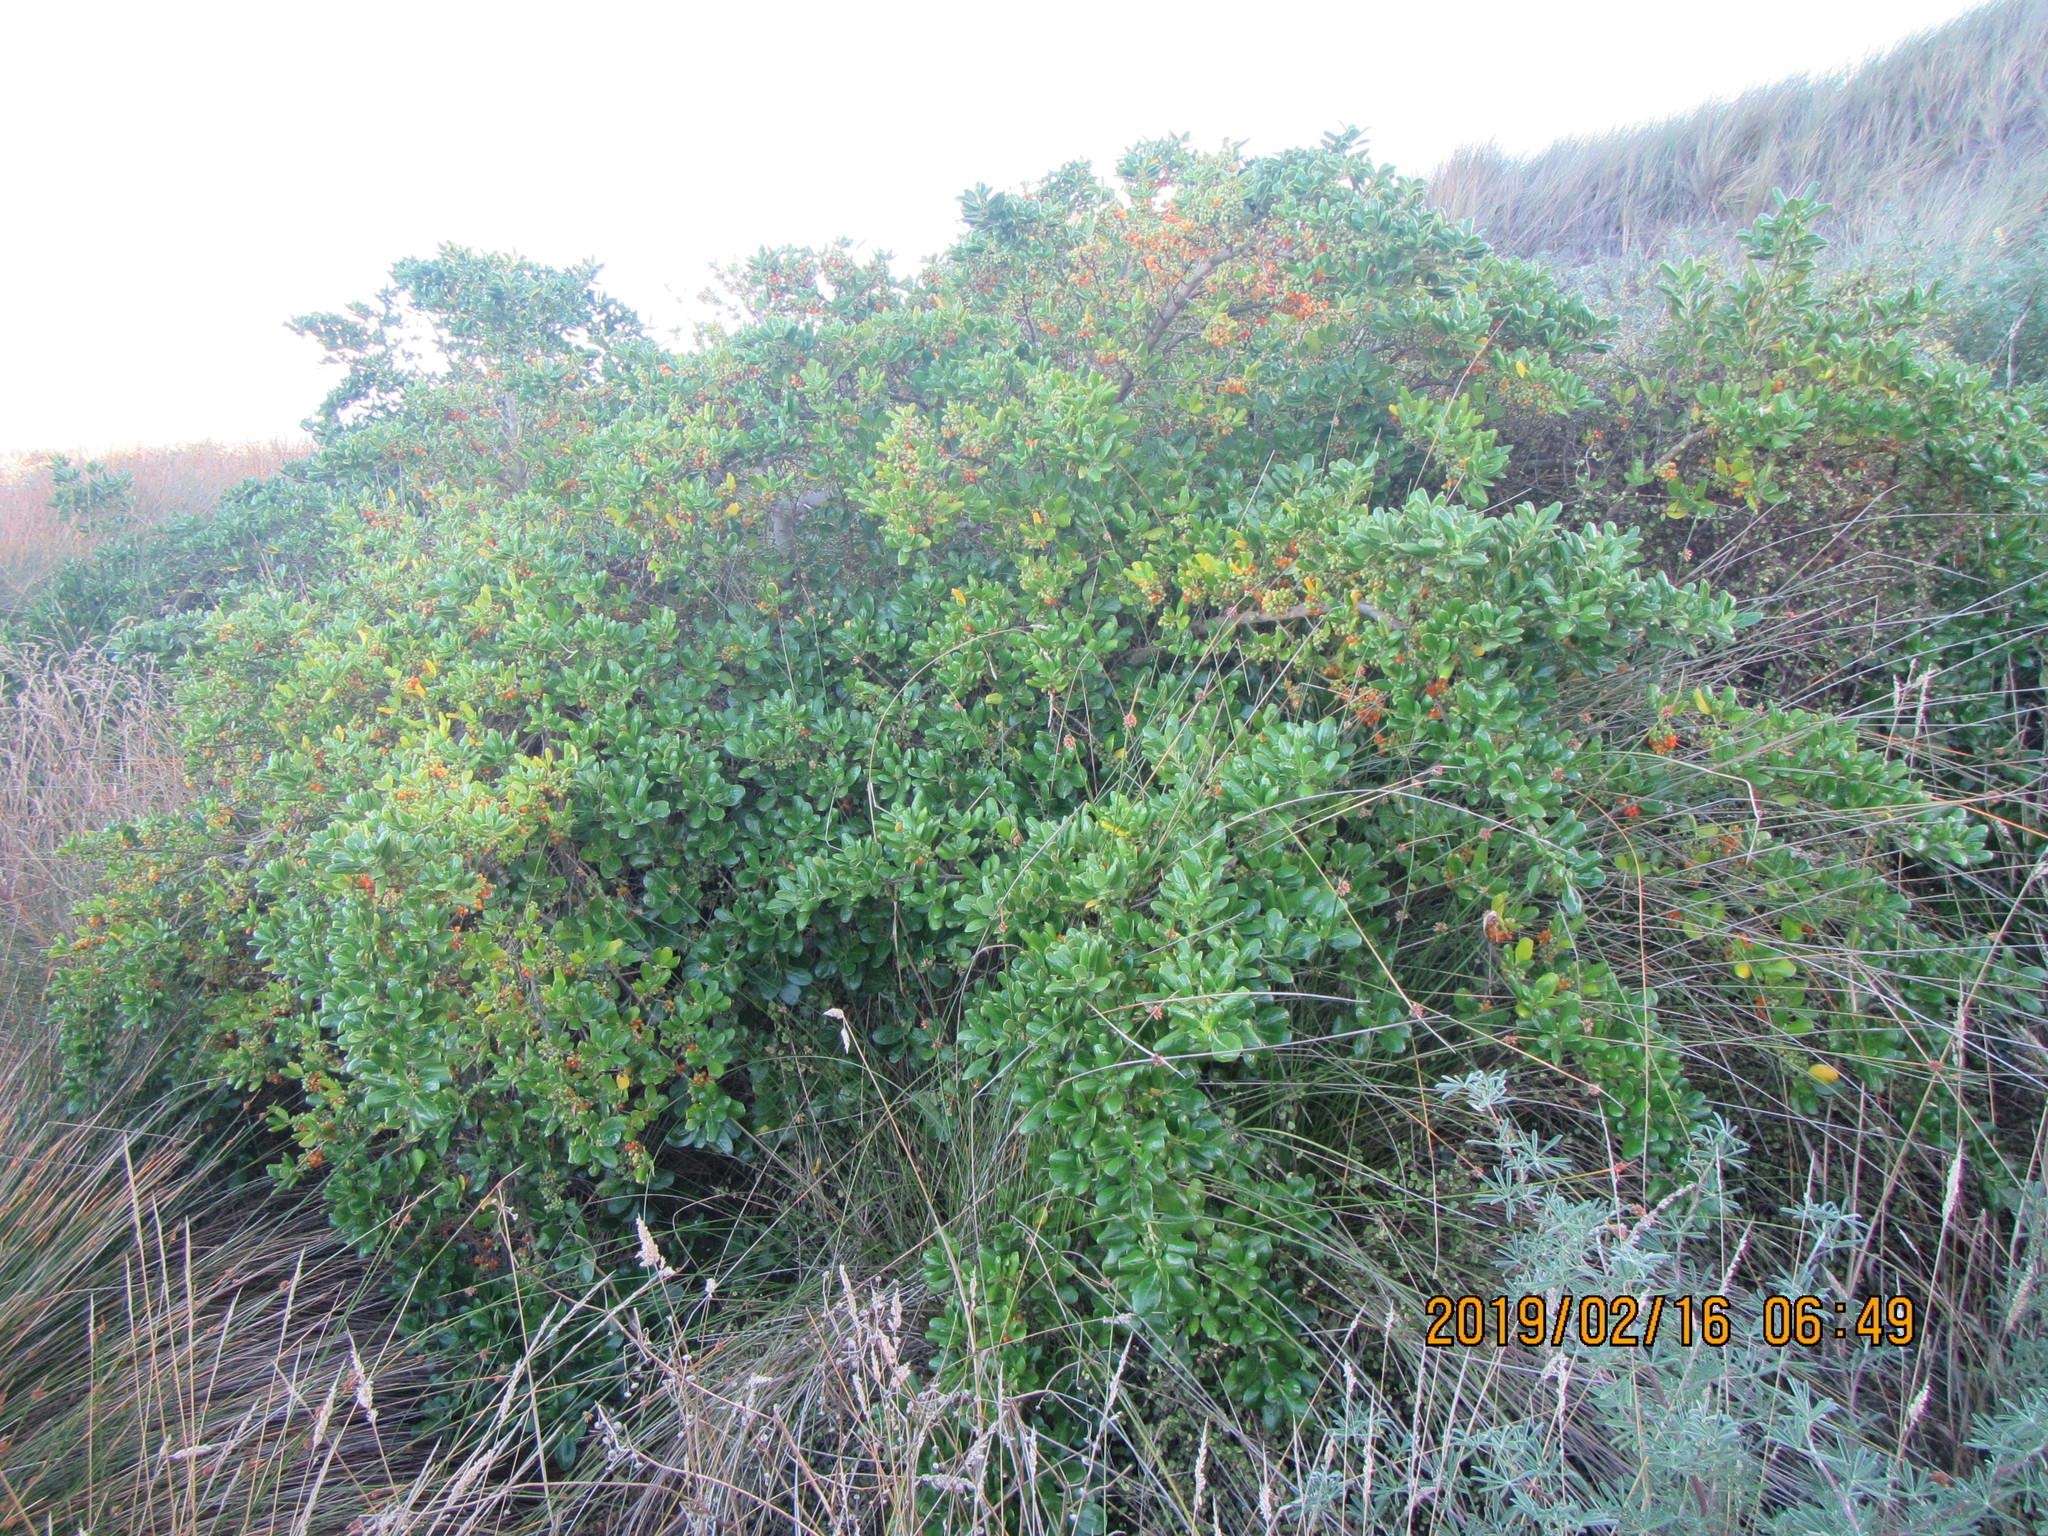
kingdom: Plantae
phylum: Tracheophyta
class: Magnoliopsida
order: Gentianales
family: Rubiaceae
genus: Coprosma
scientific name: Coprosma repens
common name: Tree bedstraw
